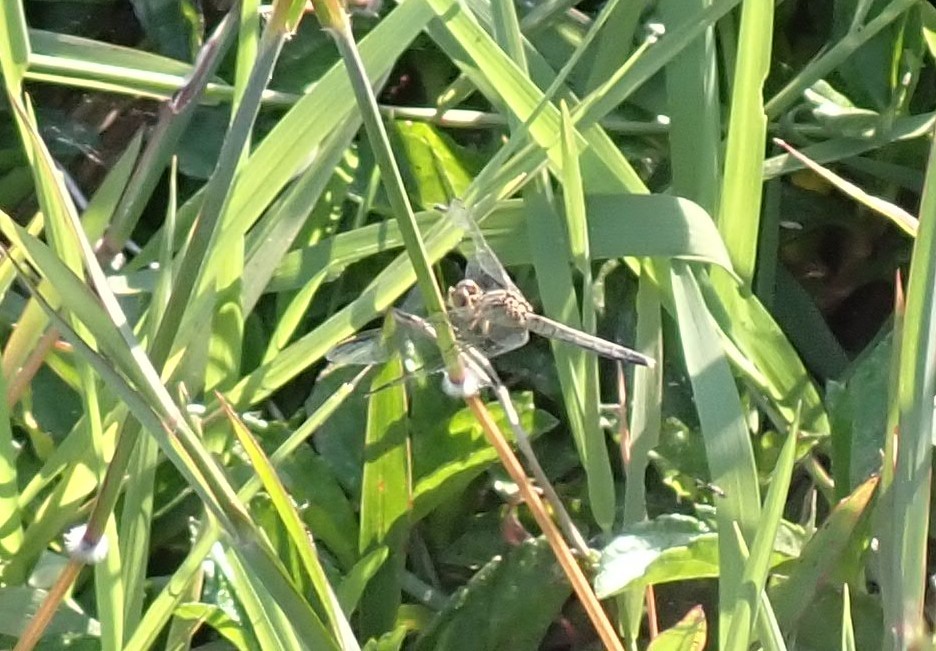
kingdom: Animalia
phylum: Arthropoda
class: Insecta
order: Odonata
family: Libellulidae
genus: Diplacodes
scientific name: Diplacodes nebulosa
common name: Black-tipped percher
